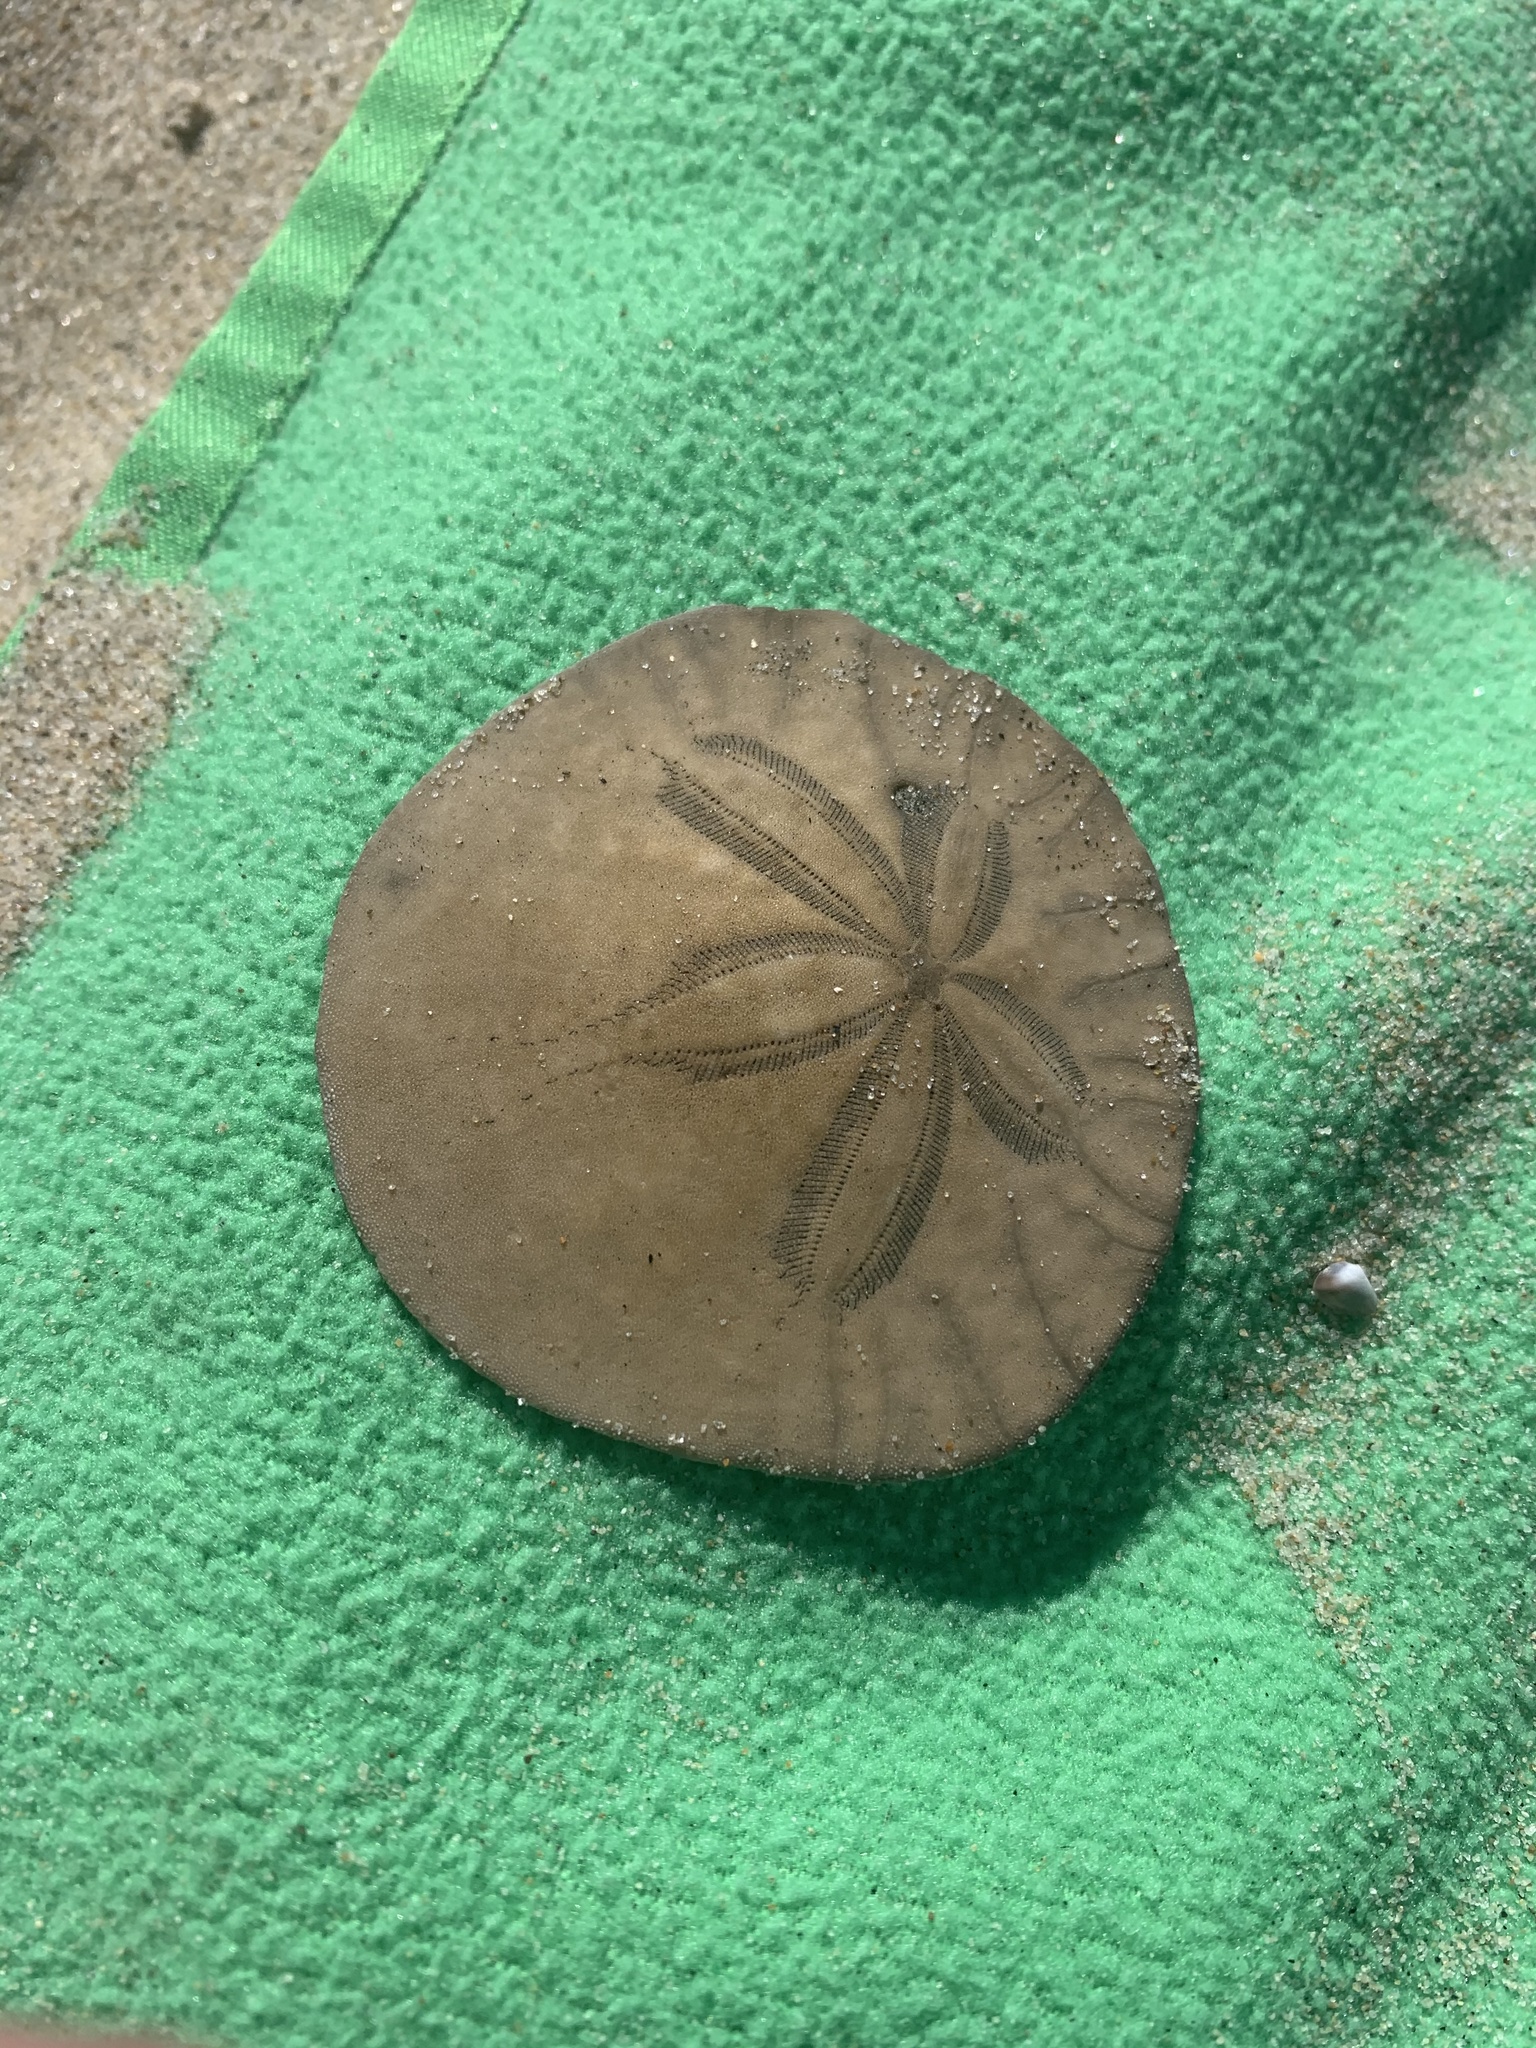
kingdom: Animalia
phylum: Echinodermata
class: Echinoidea
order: Echinolampadacea
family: Dendrasteridae
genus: Dendraster
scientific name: Dendraster excentricus
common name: Eccentric sand dollar sea urchin
